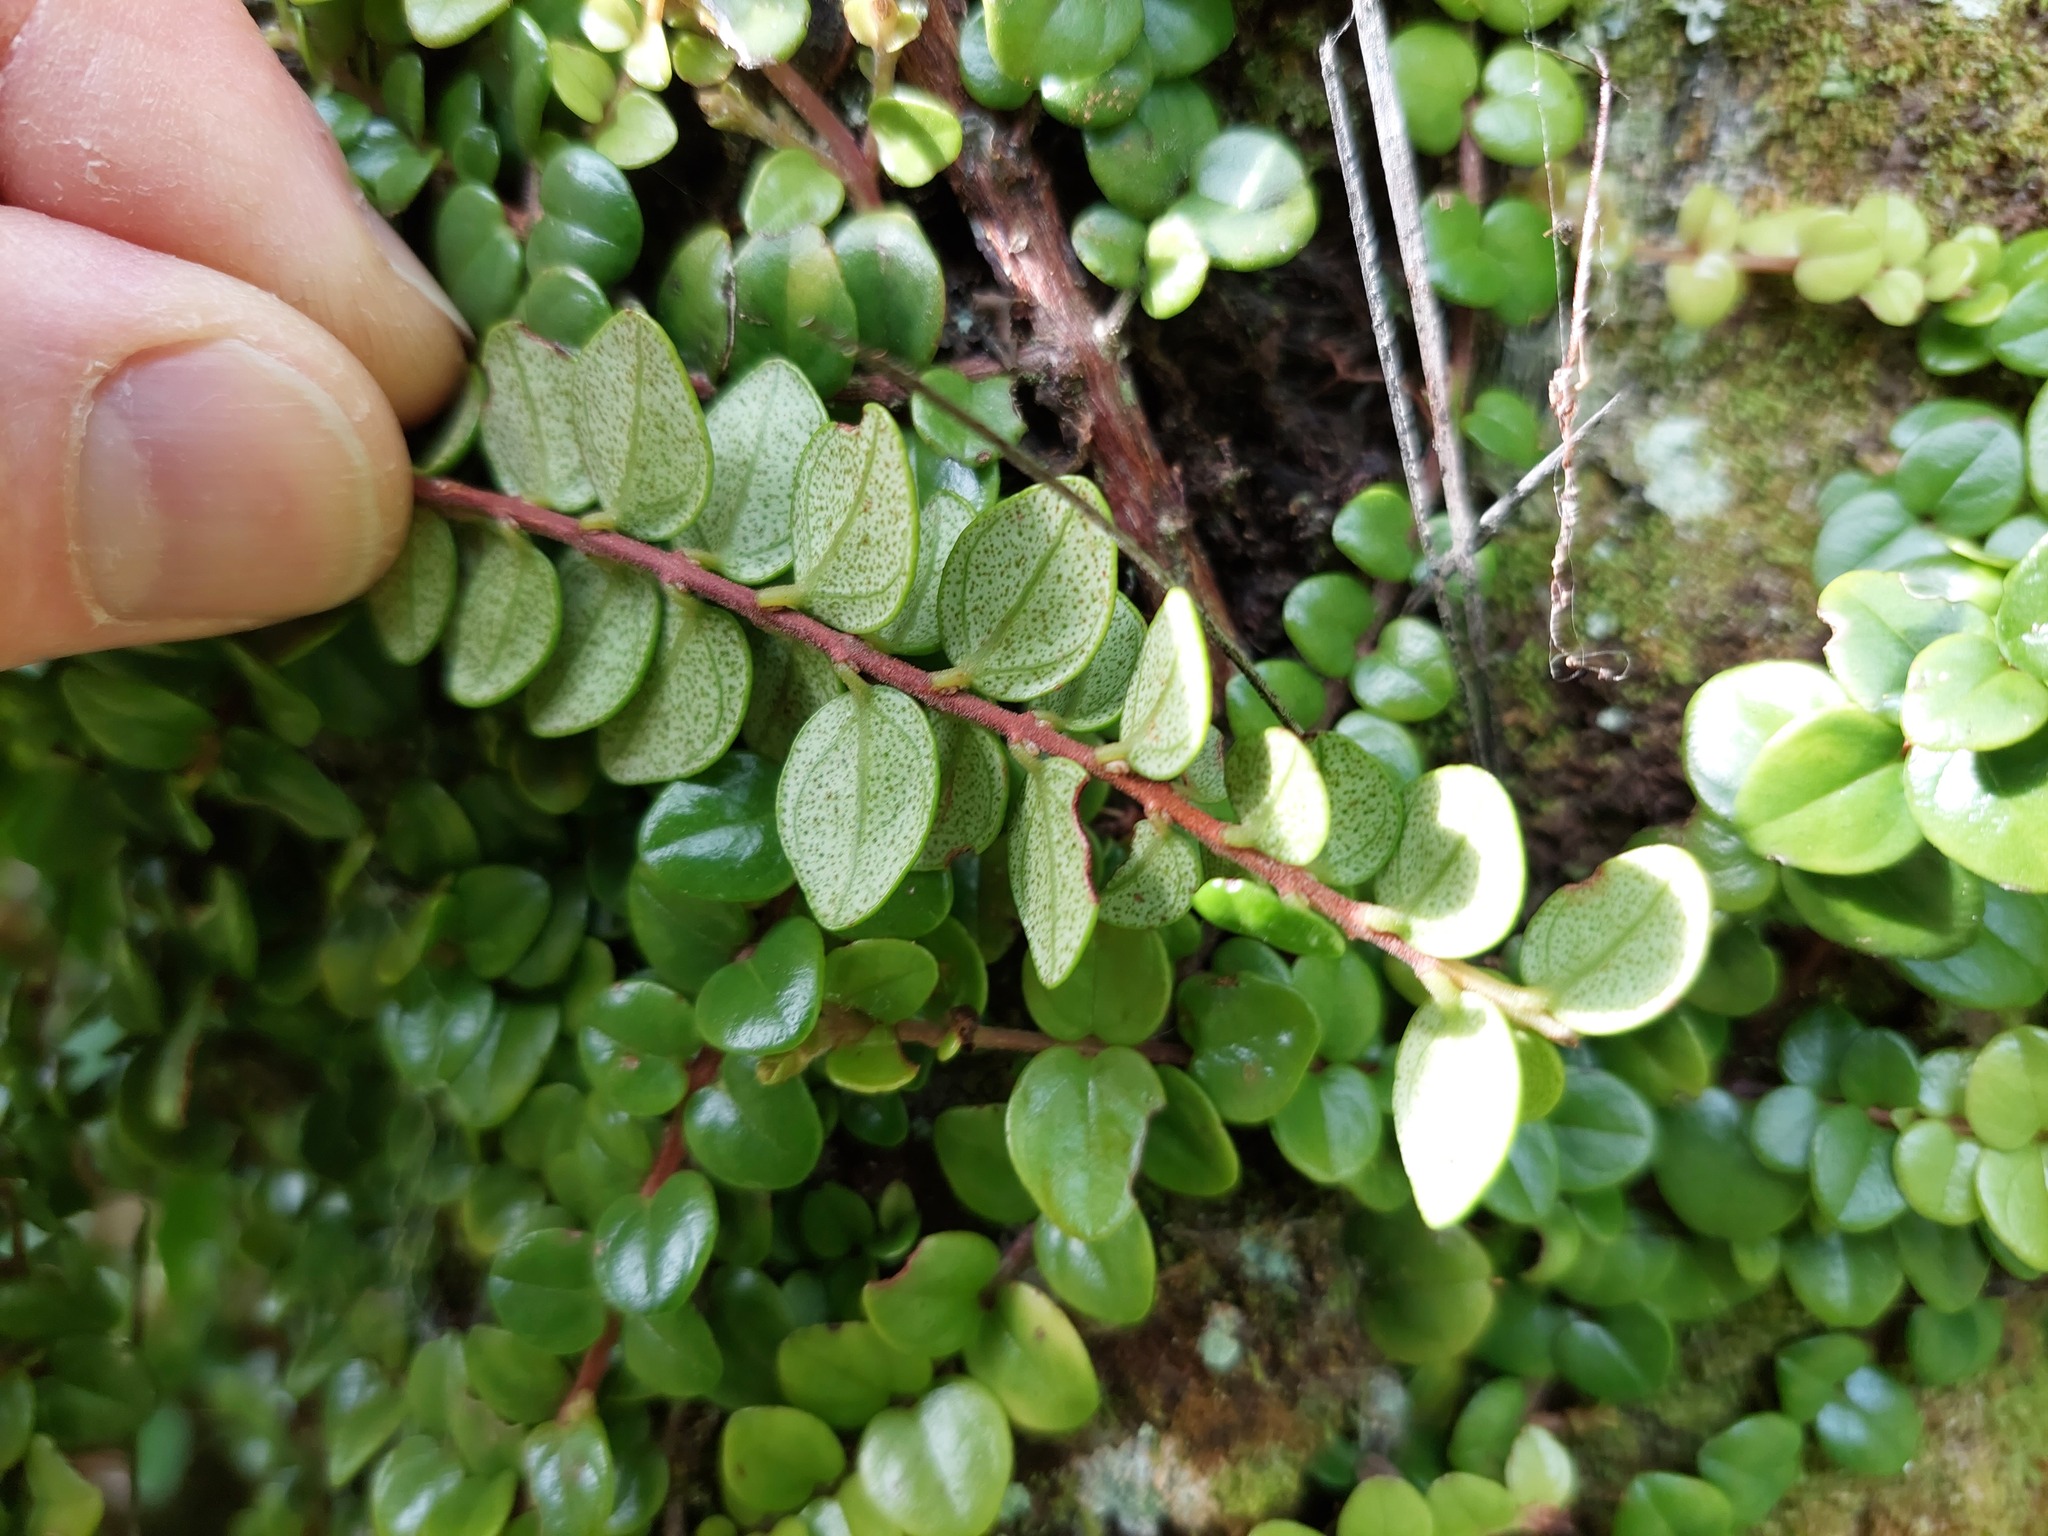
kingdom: Plantae
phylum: Tracheophyta
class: Magnoliopsida
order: Myrtales
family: Myrtaceae
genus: Metrosideros
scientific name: Metrosideros perforata
